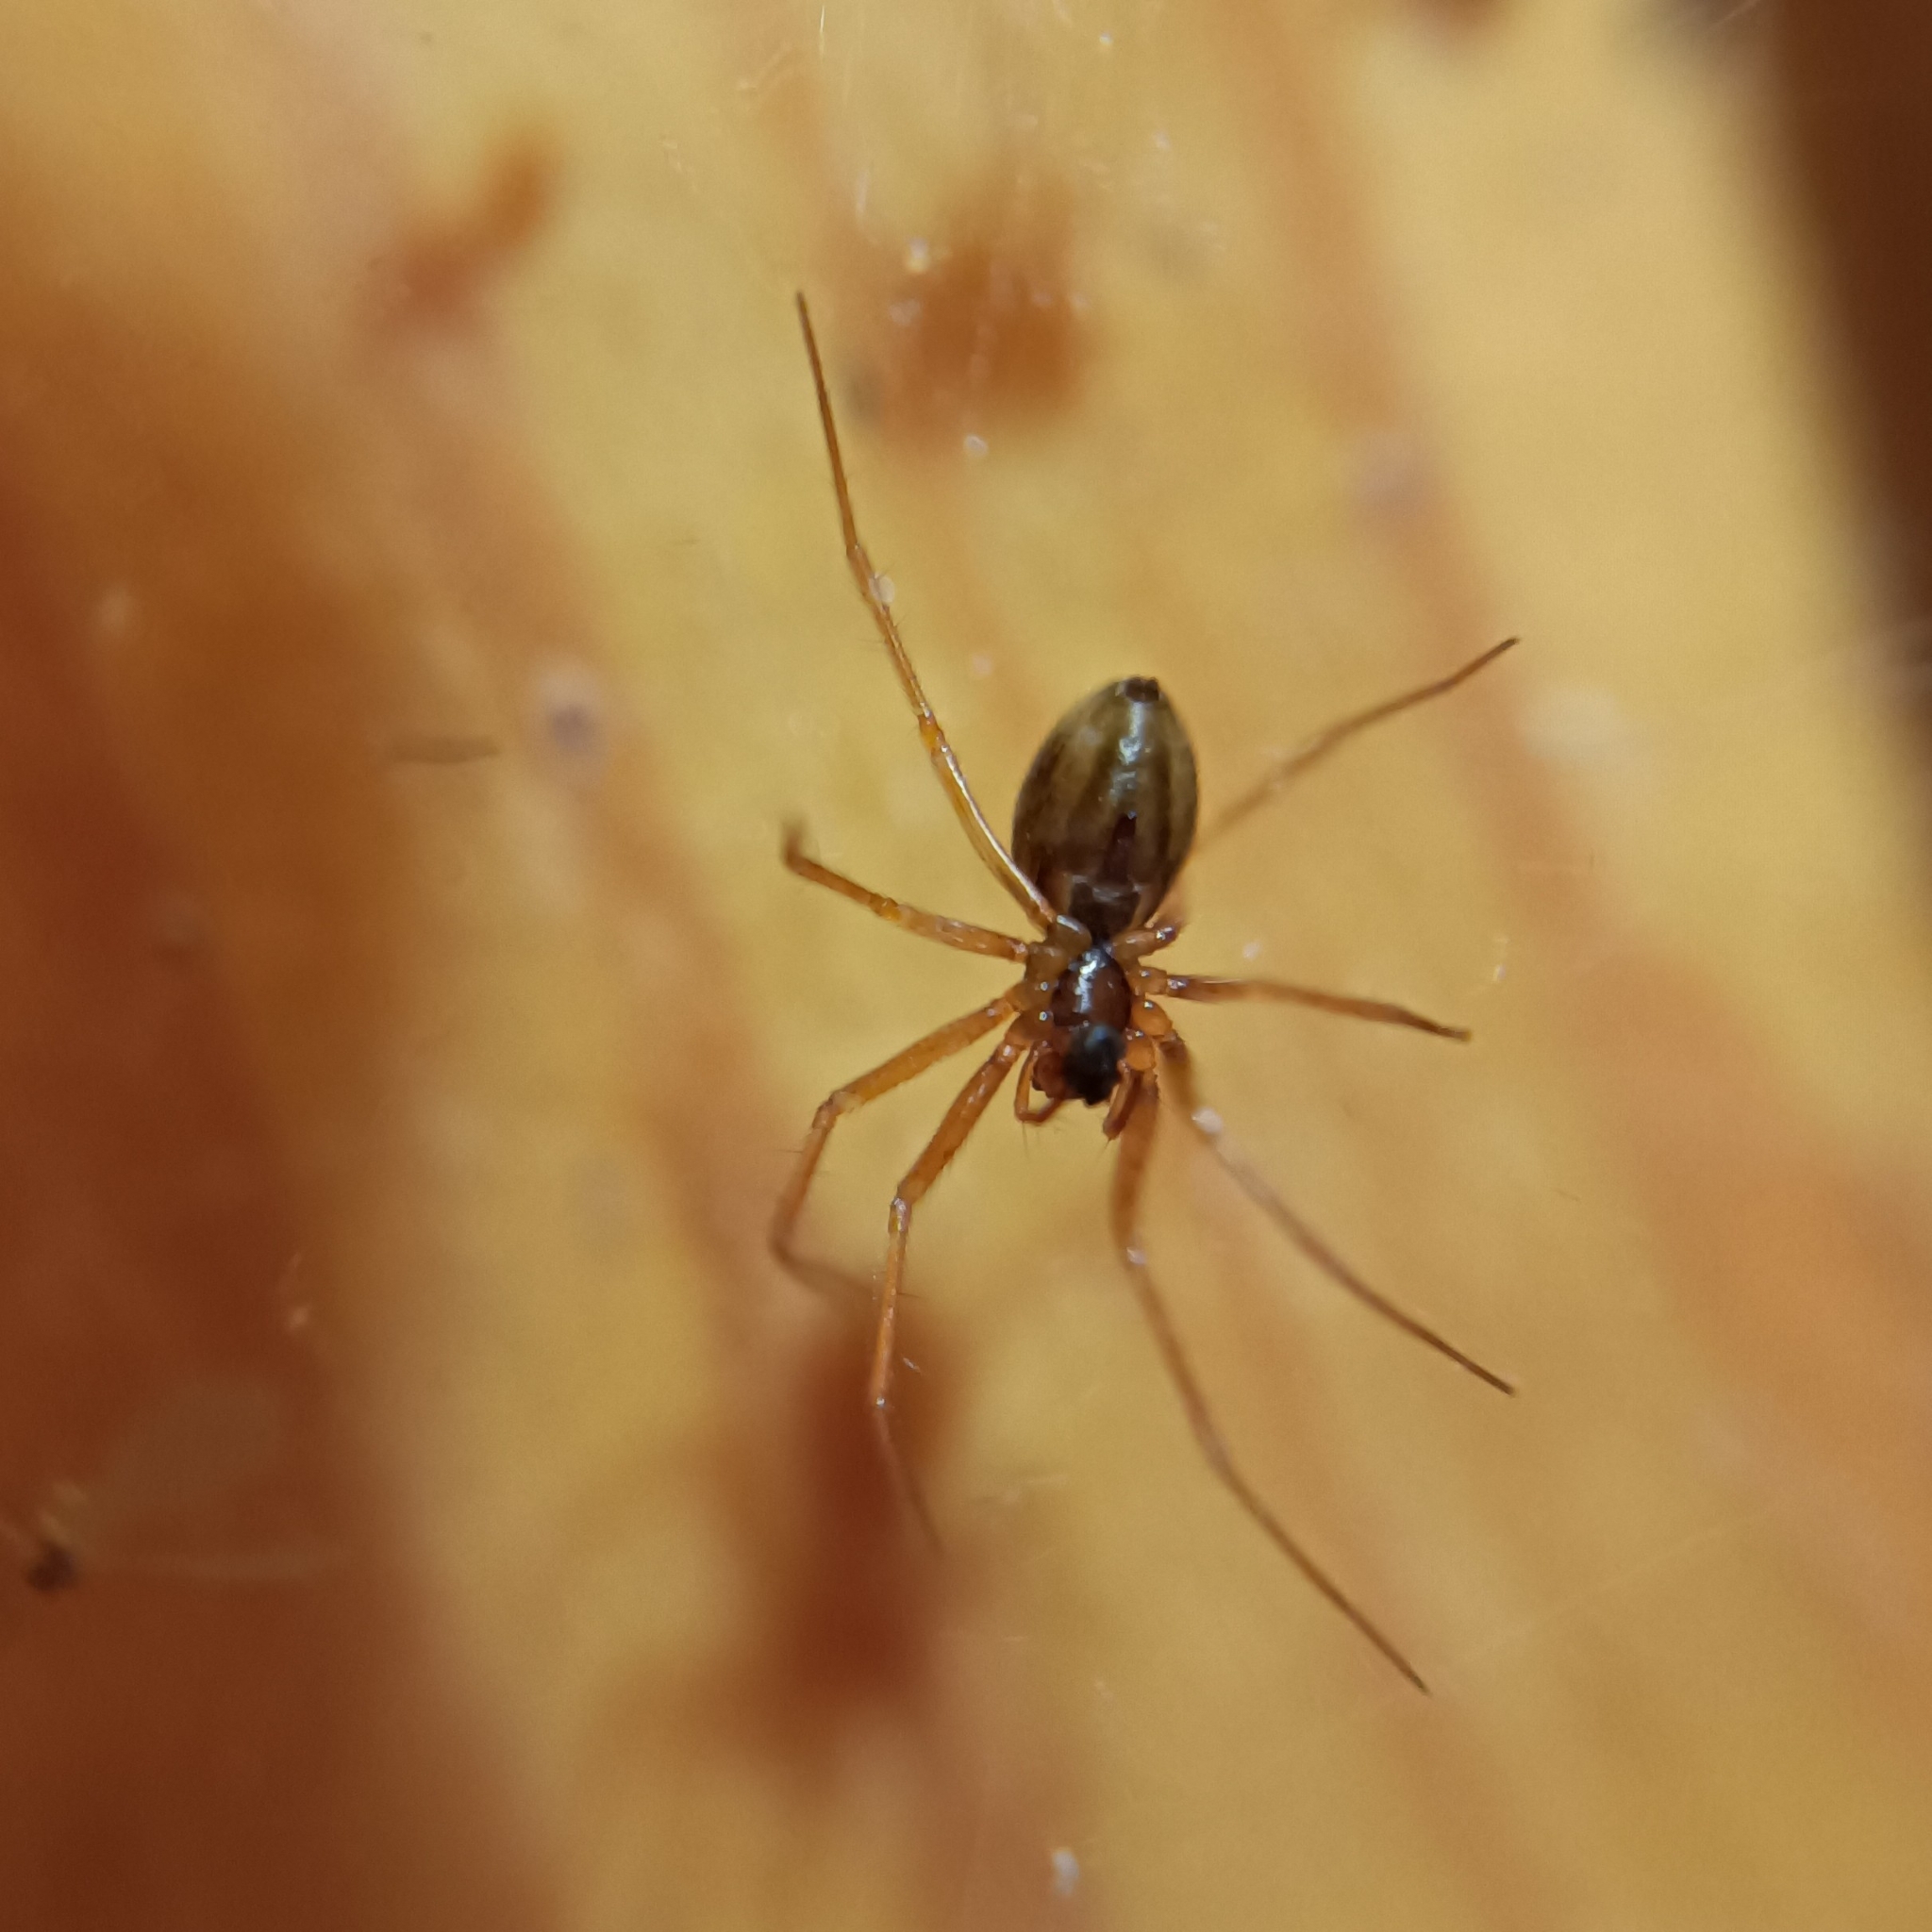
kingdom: Animalia
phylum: Arthropoda
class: Arachnida
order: Araneae
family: Linyphiidae
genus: Helophora
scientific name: Helophora insignis
